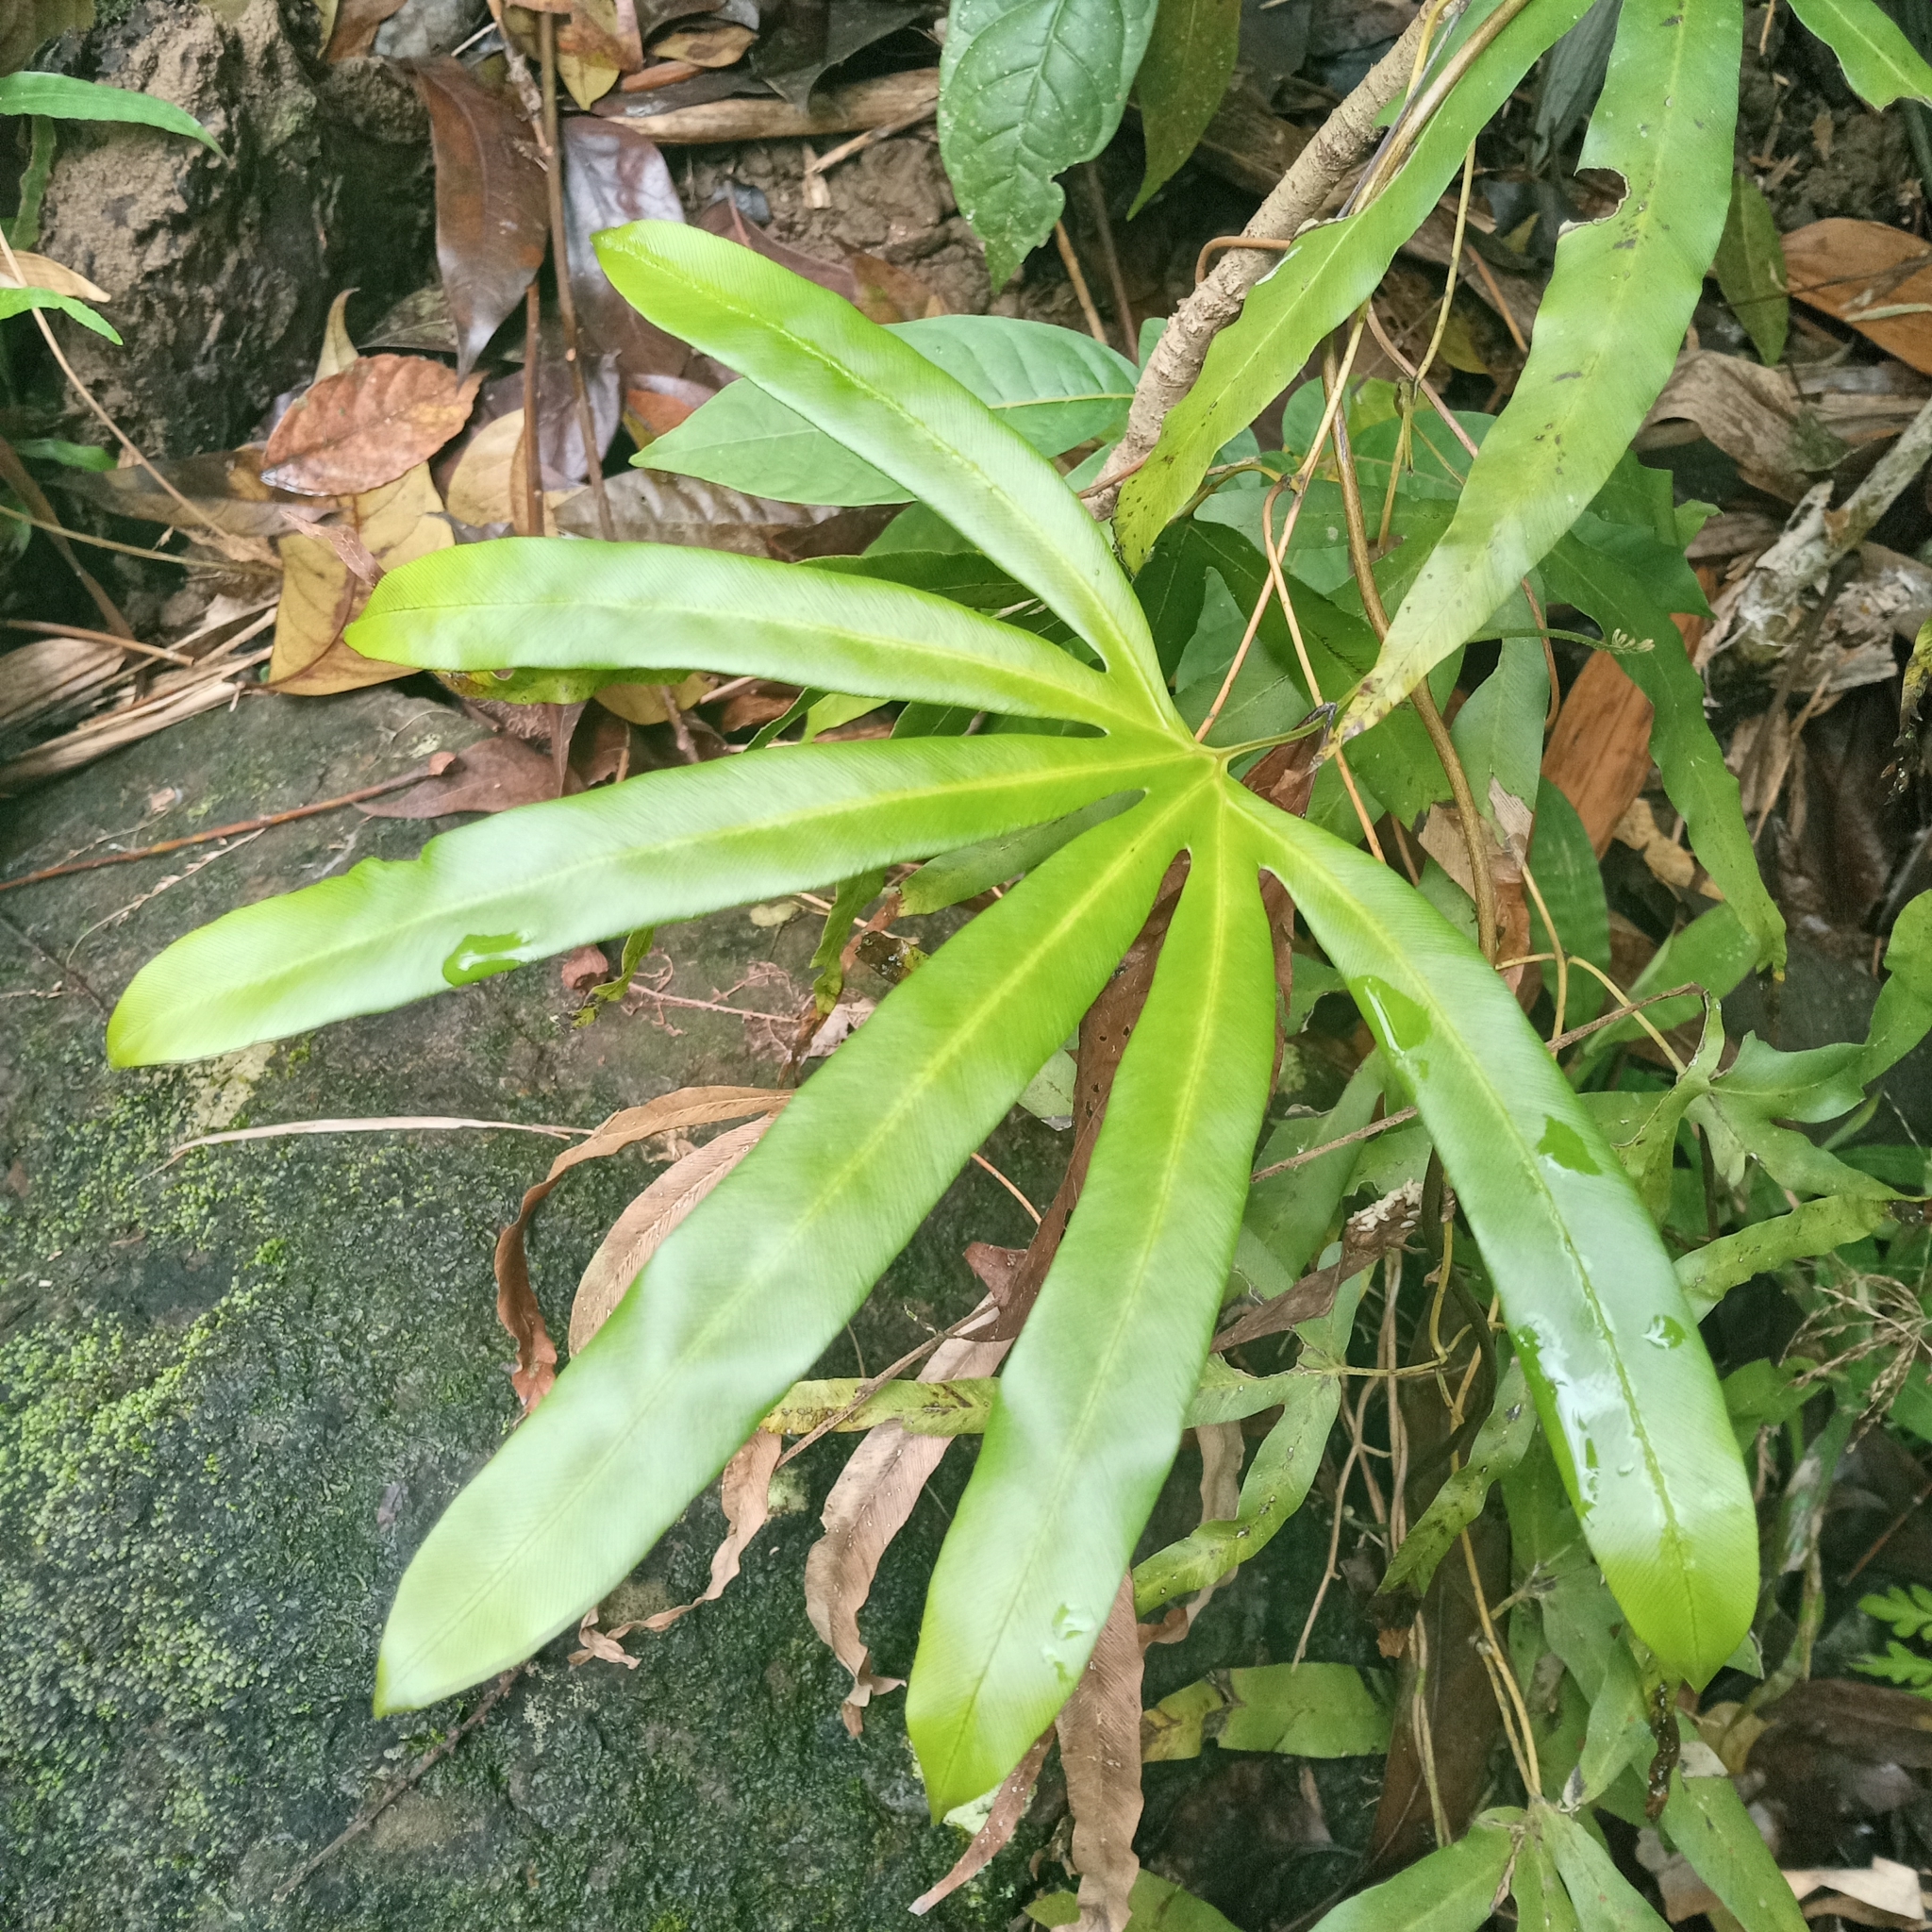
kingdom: Plantae
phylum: Tracheophyta
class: Polypodiopsida
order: Schizaeales
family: Lygodiaceae
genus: Lygodium
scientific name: Lygodium circinnatum
